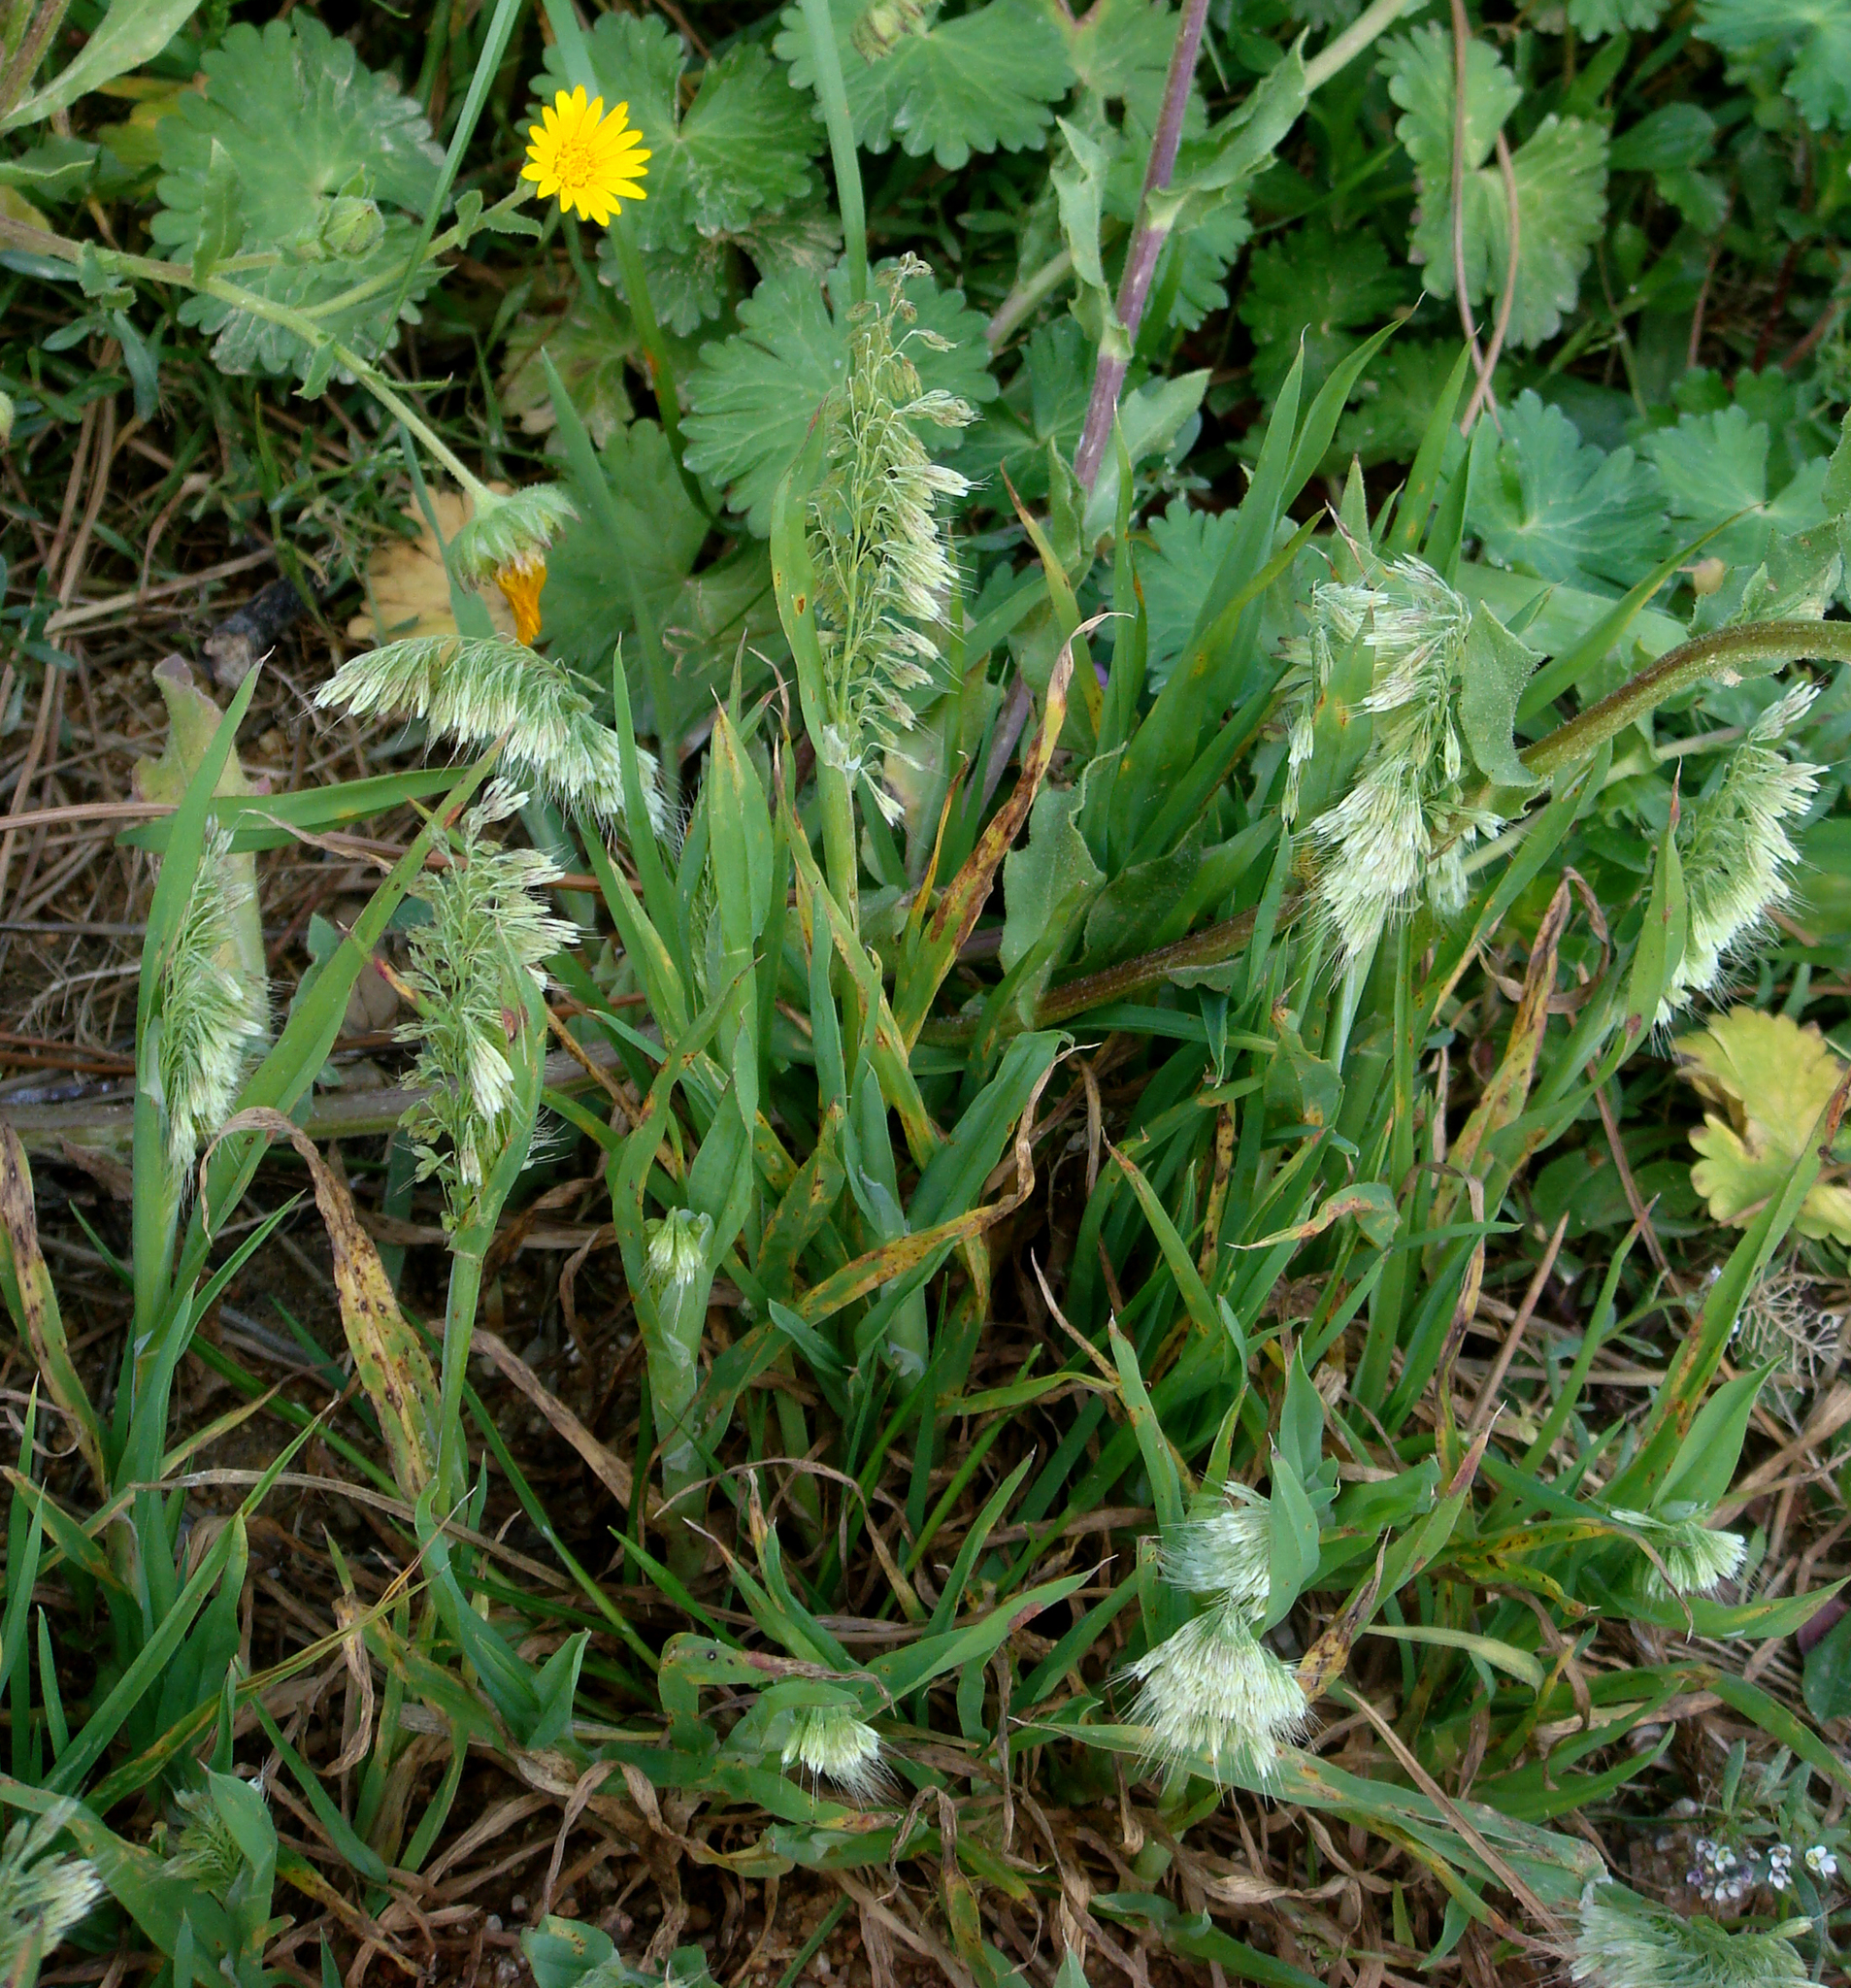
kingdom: Plantae
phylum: Tracheophyta
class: Liliopsida
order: Poales
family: Poaceae
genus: Lamarckia
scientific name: Lamarckia aurea
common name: Golden dog's-tail
